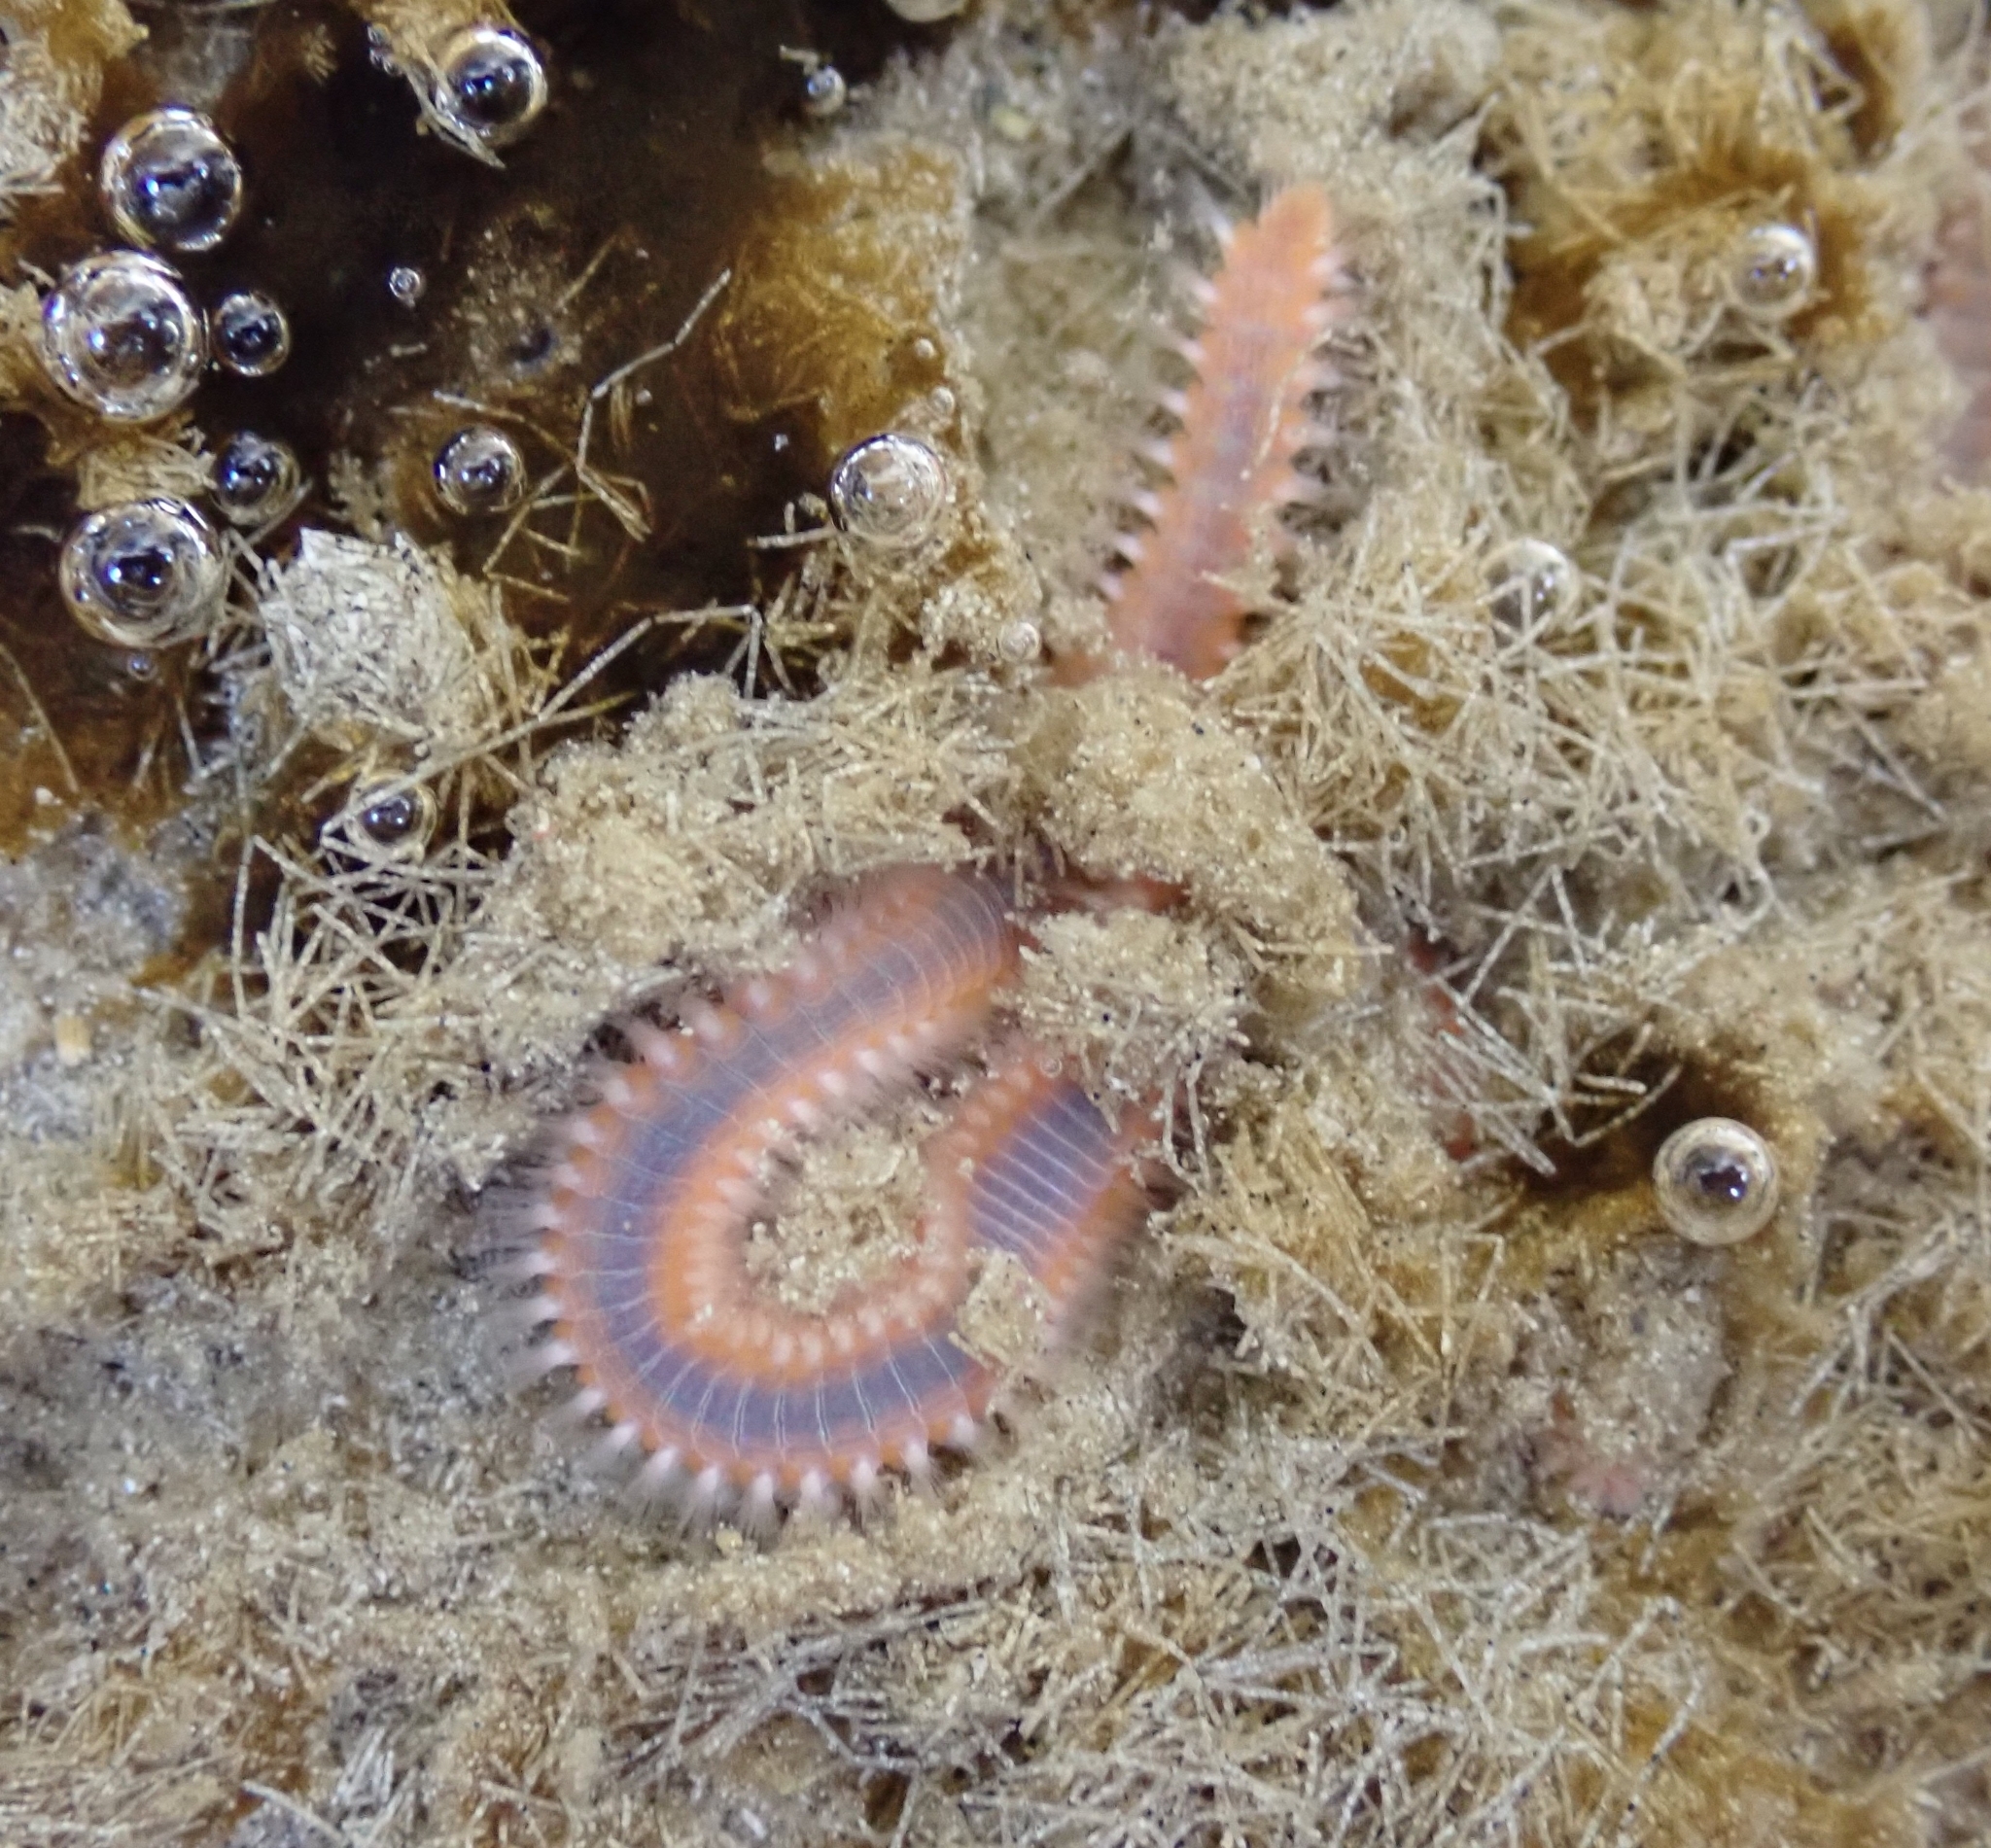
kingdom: Animalia
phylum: Annelida
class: Polychaeta
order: Amphinomida
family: Amphinomidae
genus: Eurythoe
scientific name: Eurythoe complanata
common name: Fireworm
